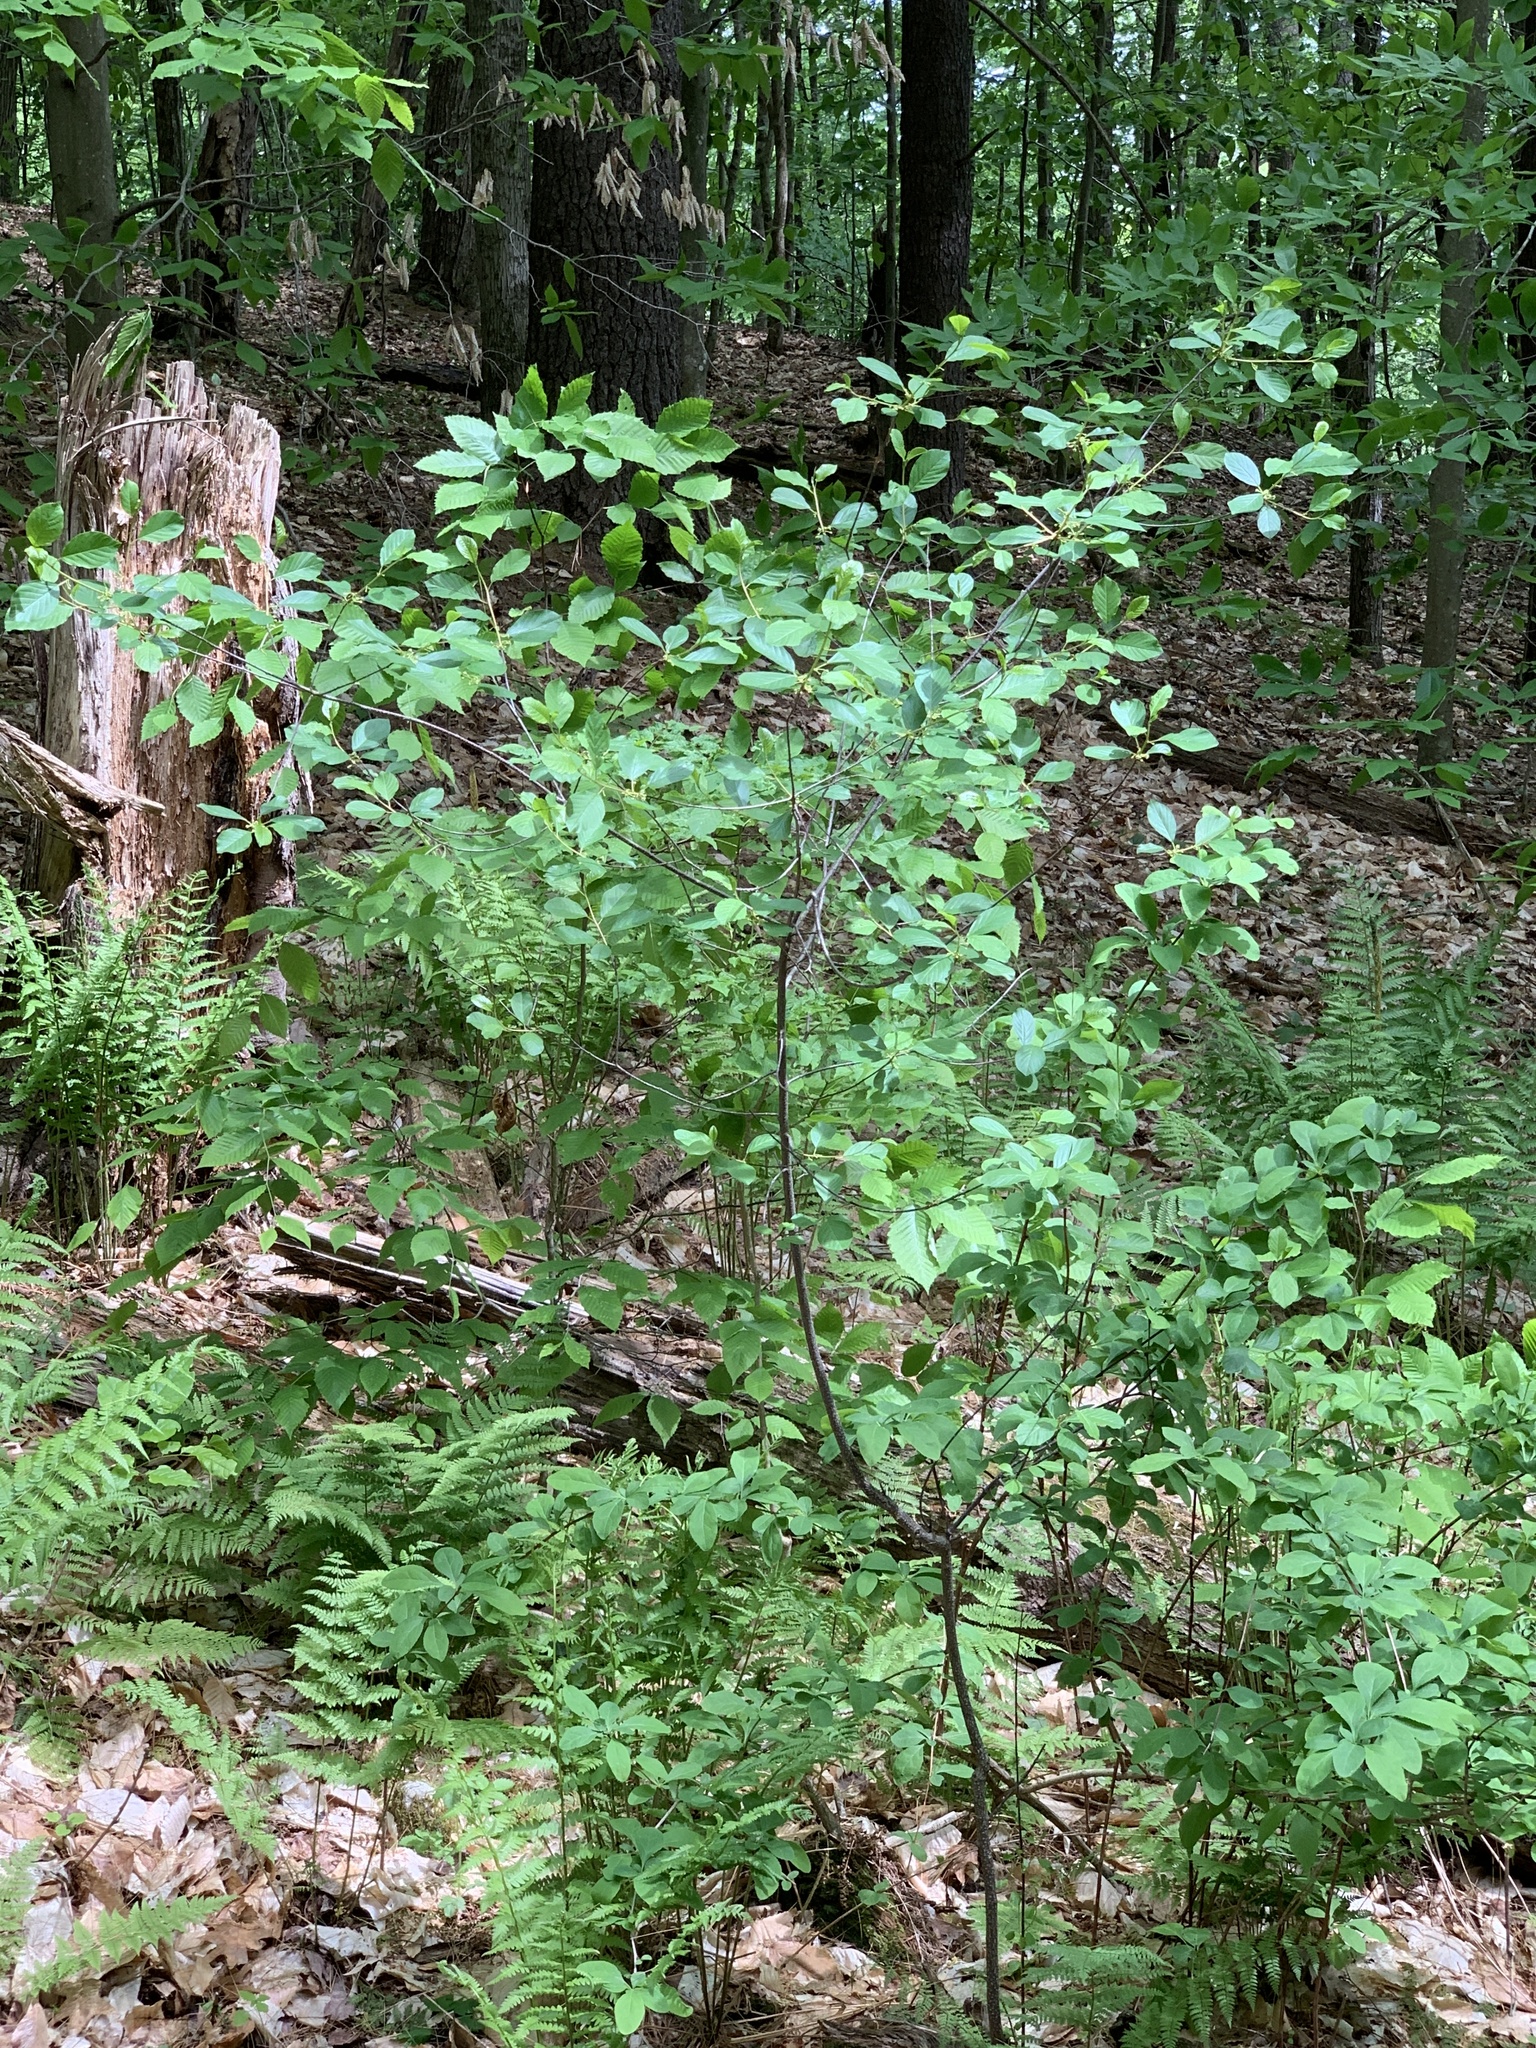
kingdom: Plantae
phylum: Tracheophyta
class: Magnoliopsida
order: Rosales
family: Rhamnaceae
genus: Frangula
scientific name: Frangula alnus
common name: Alder buckthorn
